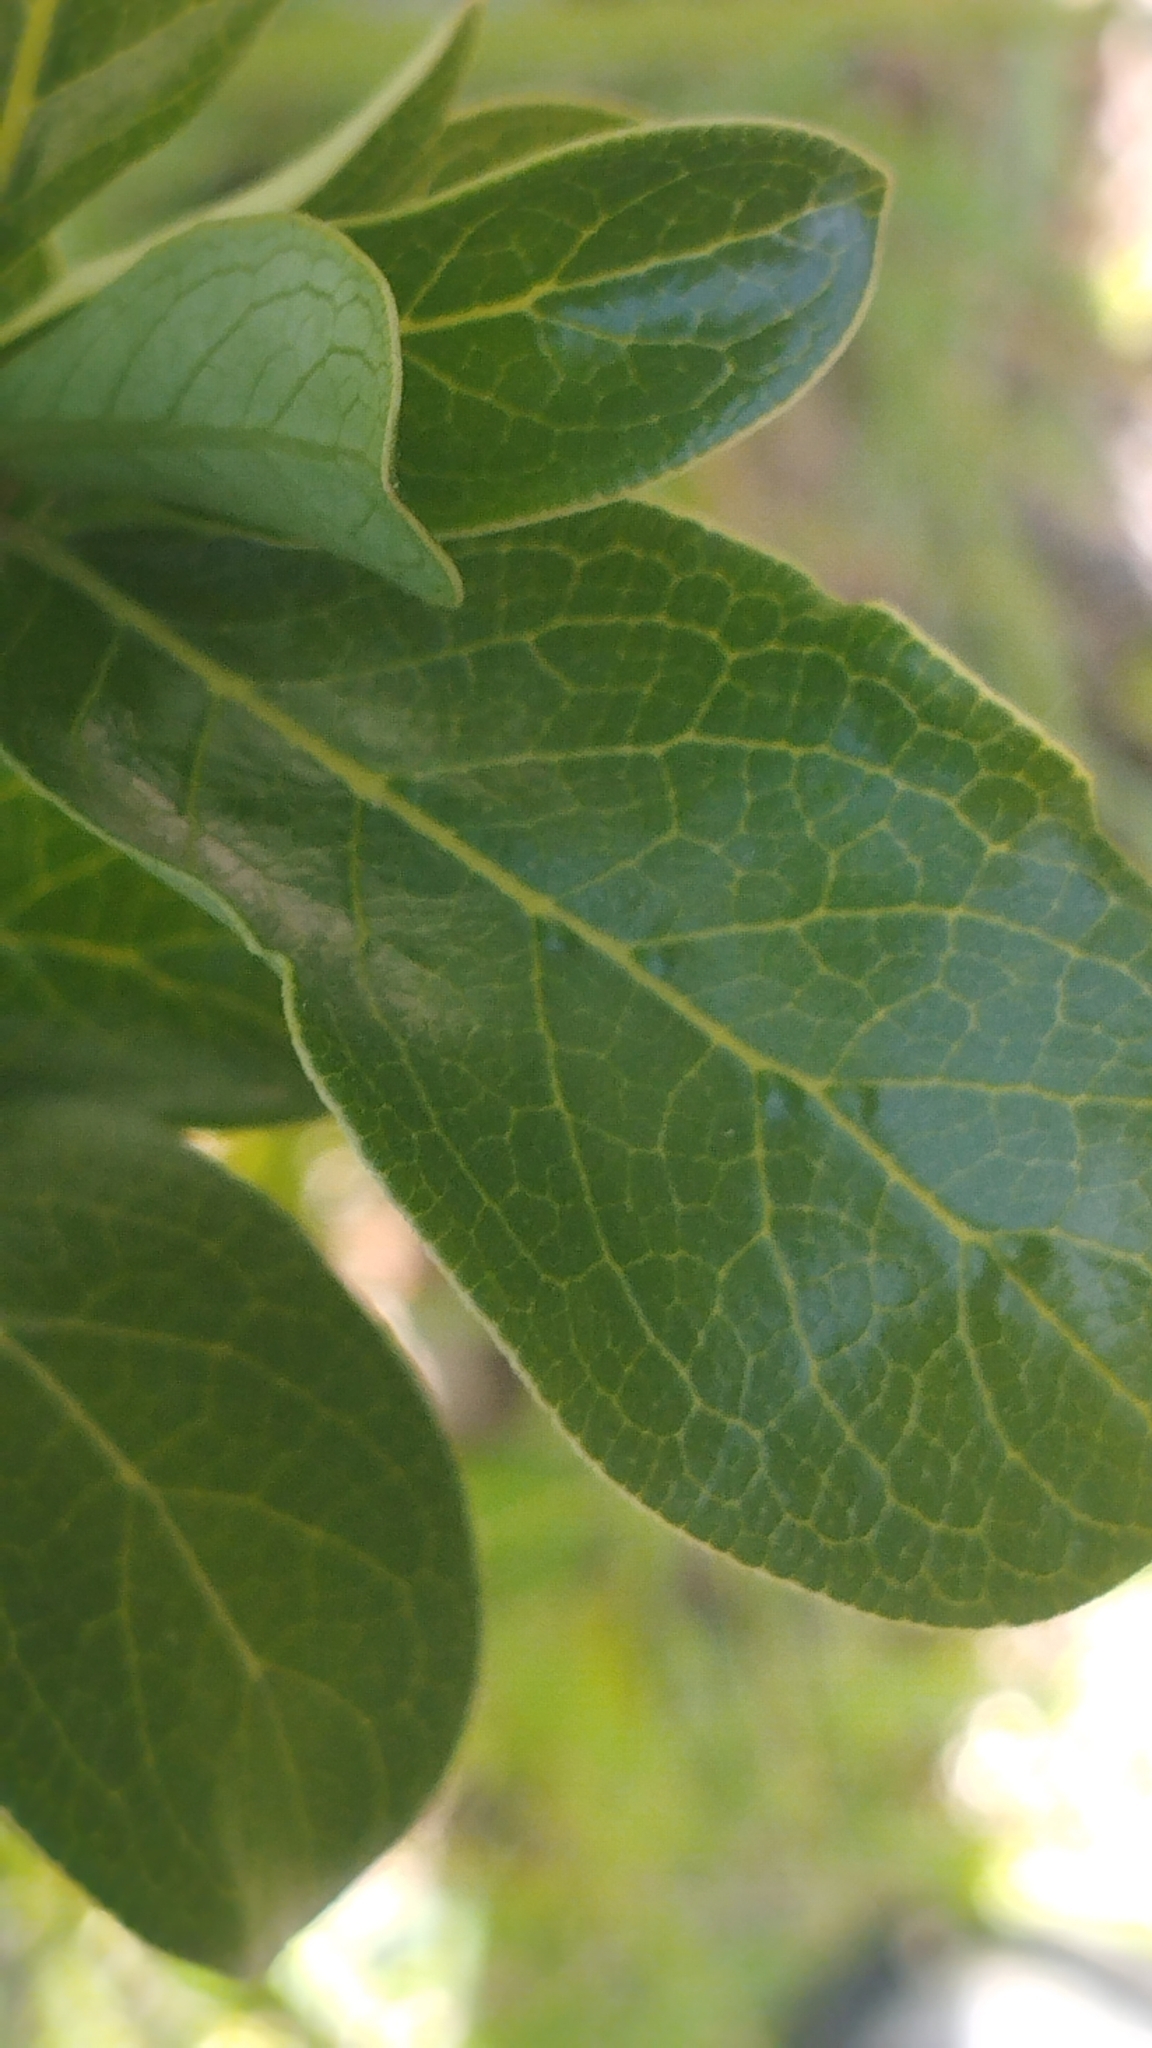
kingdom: Plantae
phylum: Tracheophyta
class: Magnoliopsida
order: Gentianales
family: Rubiaceae
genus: Coprosma
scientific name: Coprosma robusta
